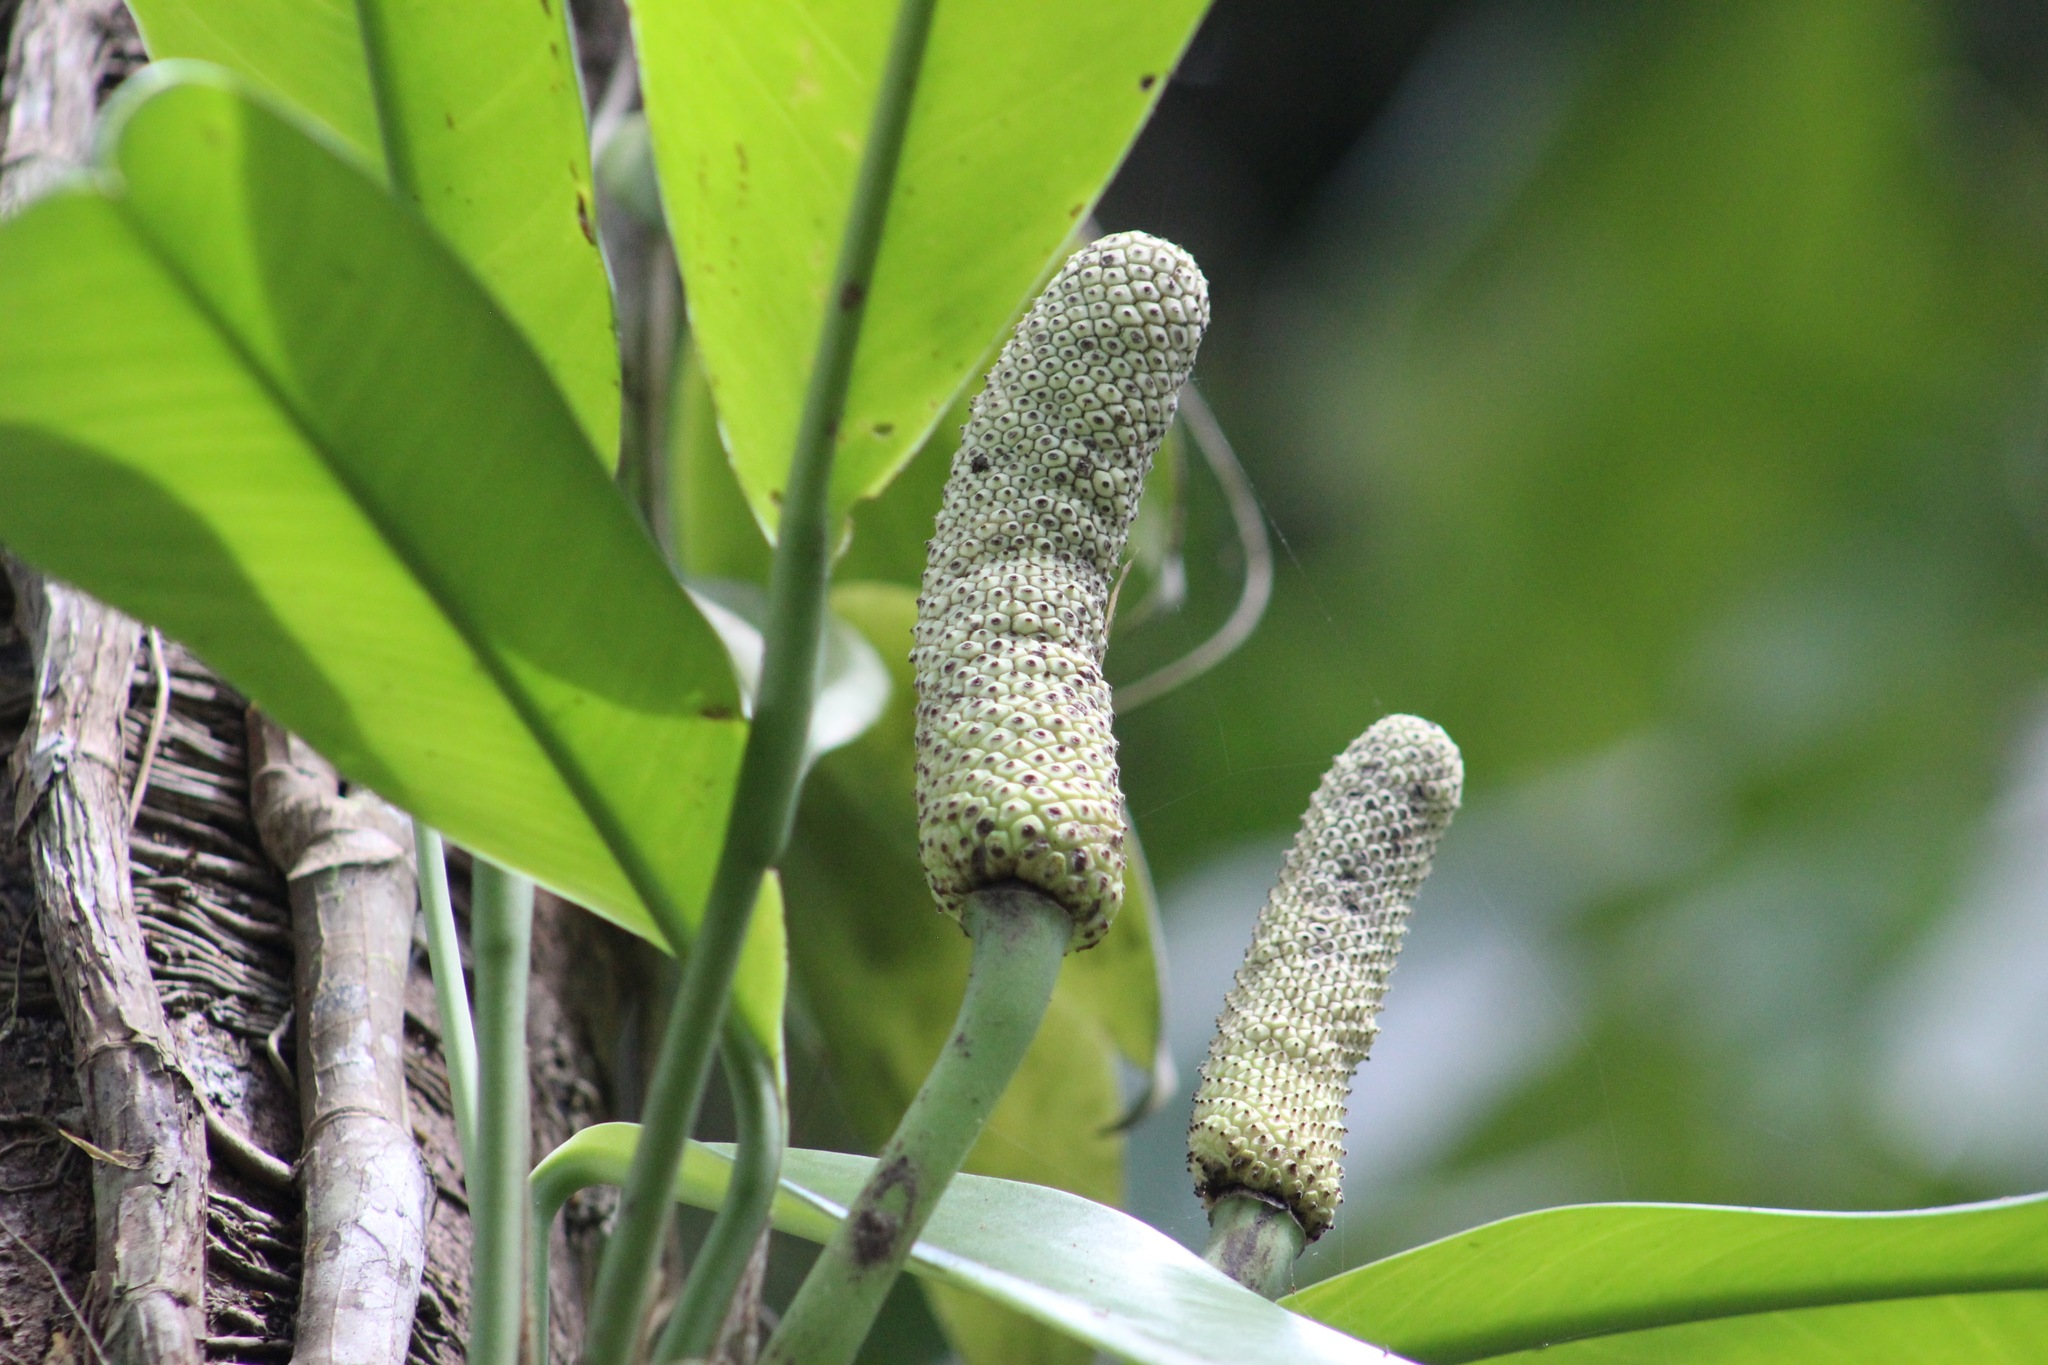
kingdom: Plantae
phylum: Tracheophyta
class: Liliopsida
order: Alismatales
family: Araceae
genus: Rhaphidophora
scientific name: Rhaphidophora australasica
